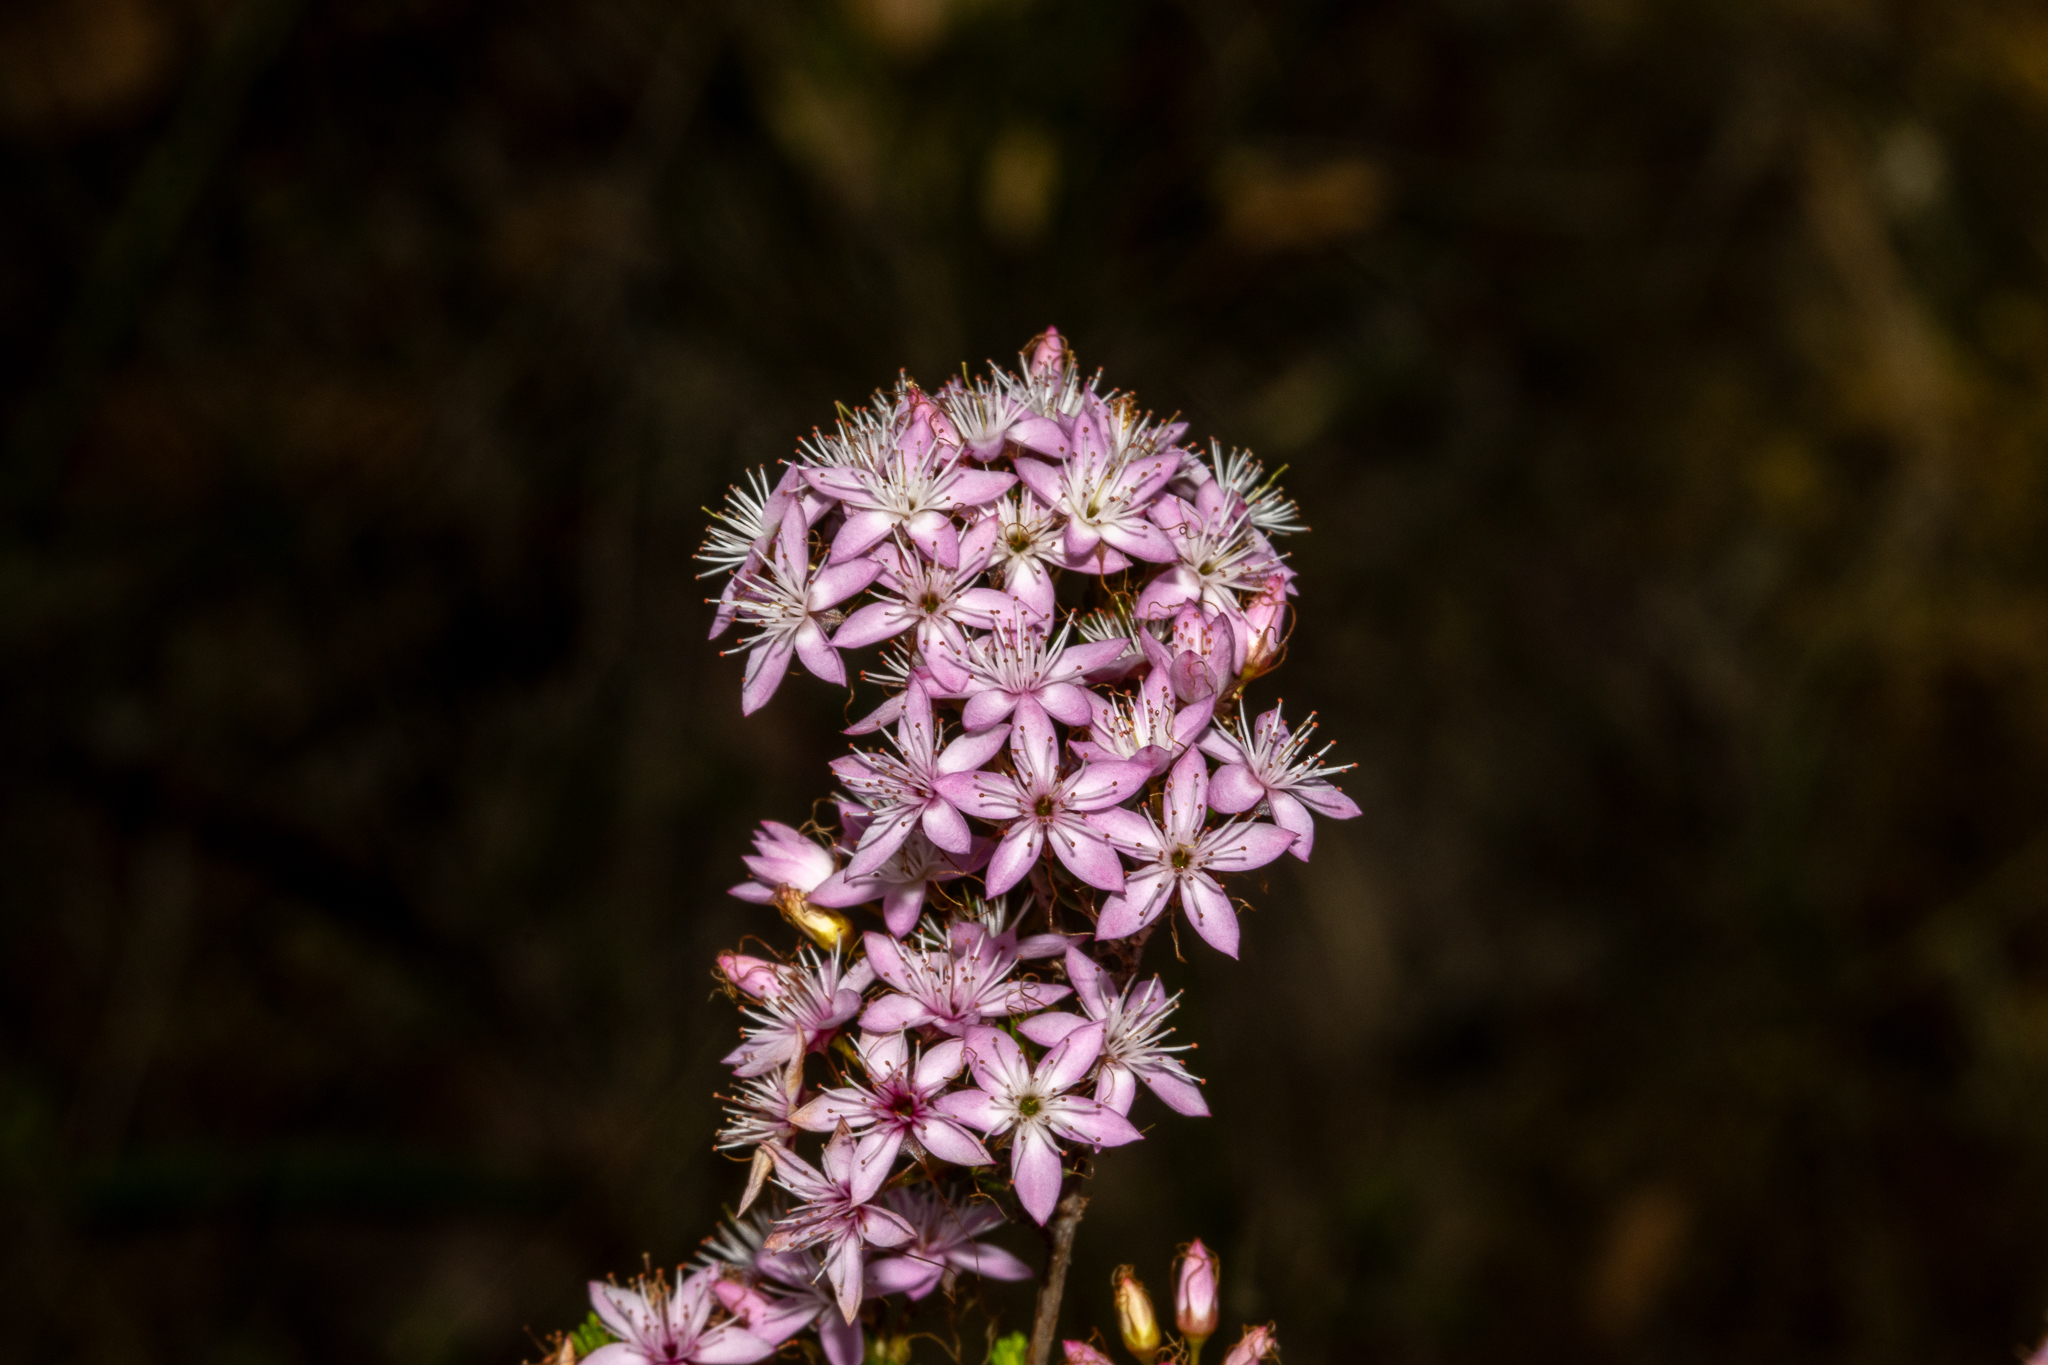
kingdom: Plantae
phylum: Tracheophyta
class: Magnoliopsida
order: Myrtales
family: Myrtaceae
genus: Calytrix
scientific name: Calytrix tetragona
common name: Common fringe myrtle
